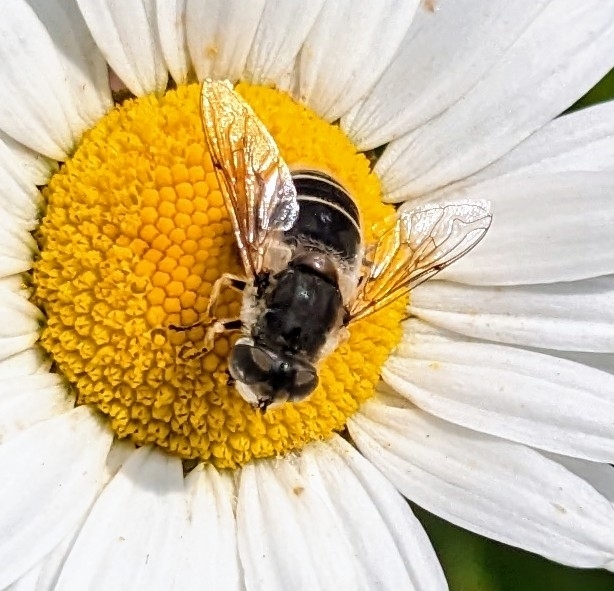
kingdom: Animalia
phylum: Arthropoda
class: Insecta
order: Diptera
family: Syrphidae
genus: Eristalis
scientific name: Eristalis arbustorum
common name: Hover fly
